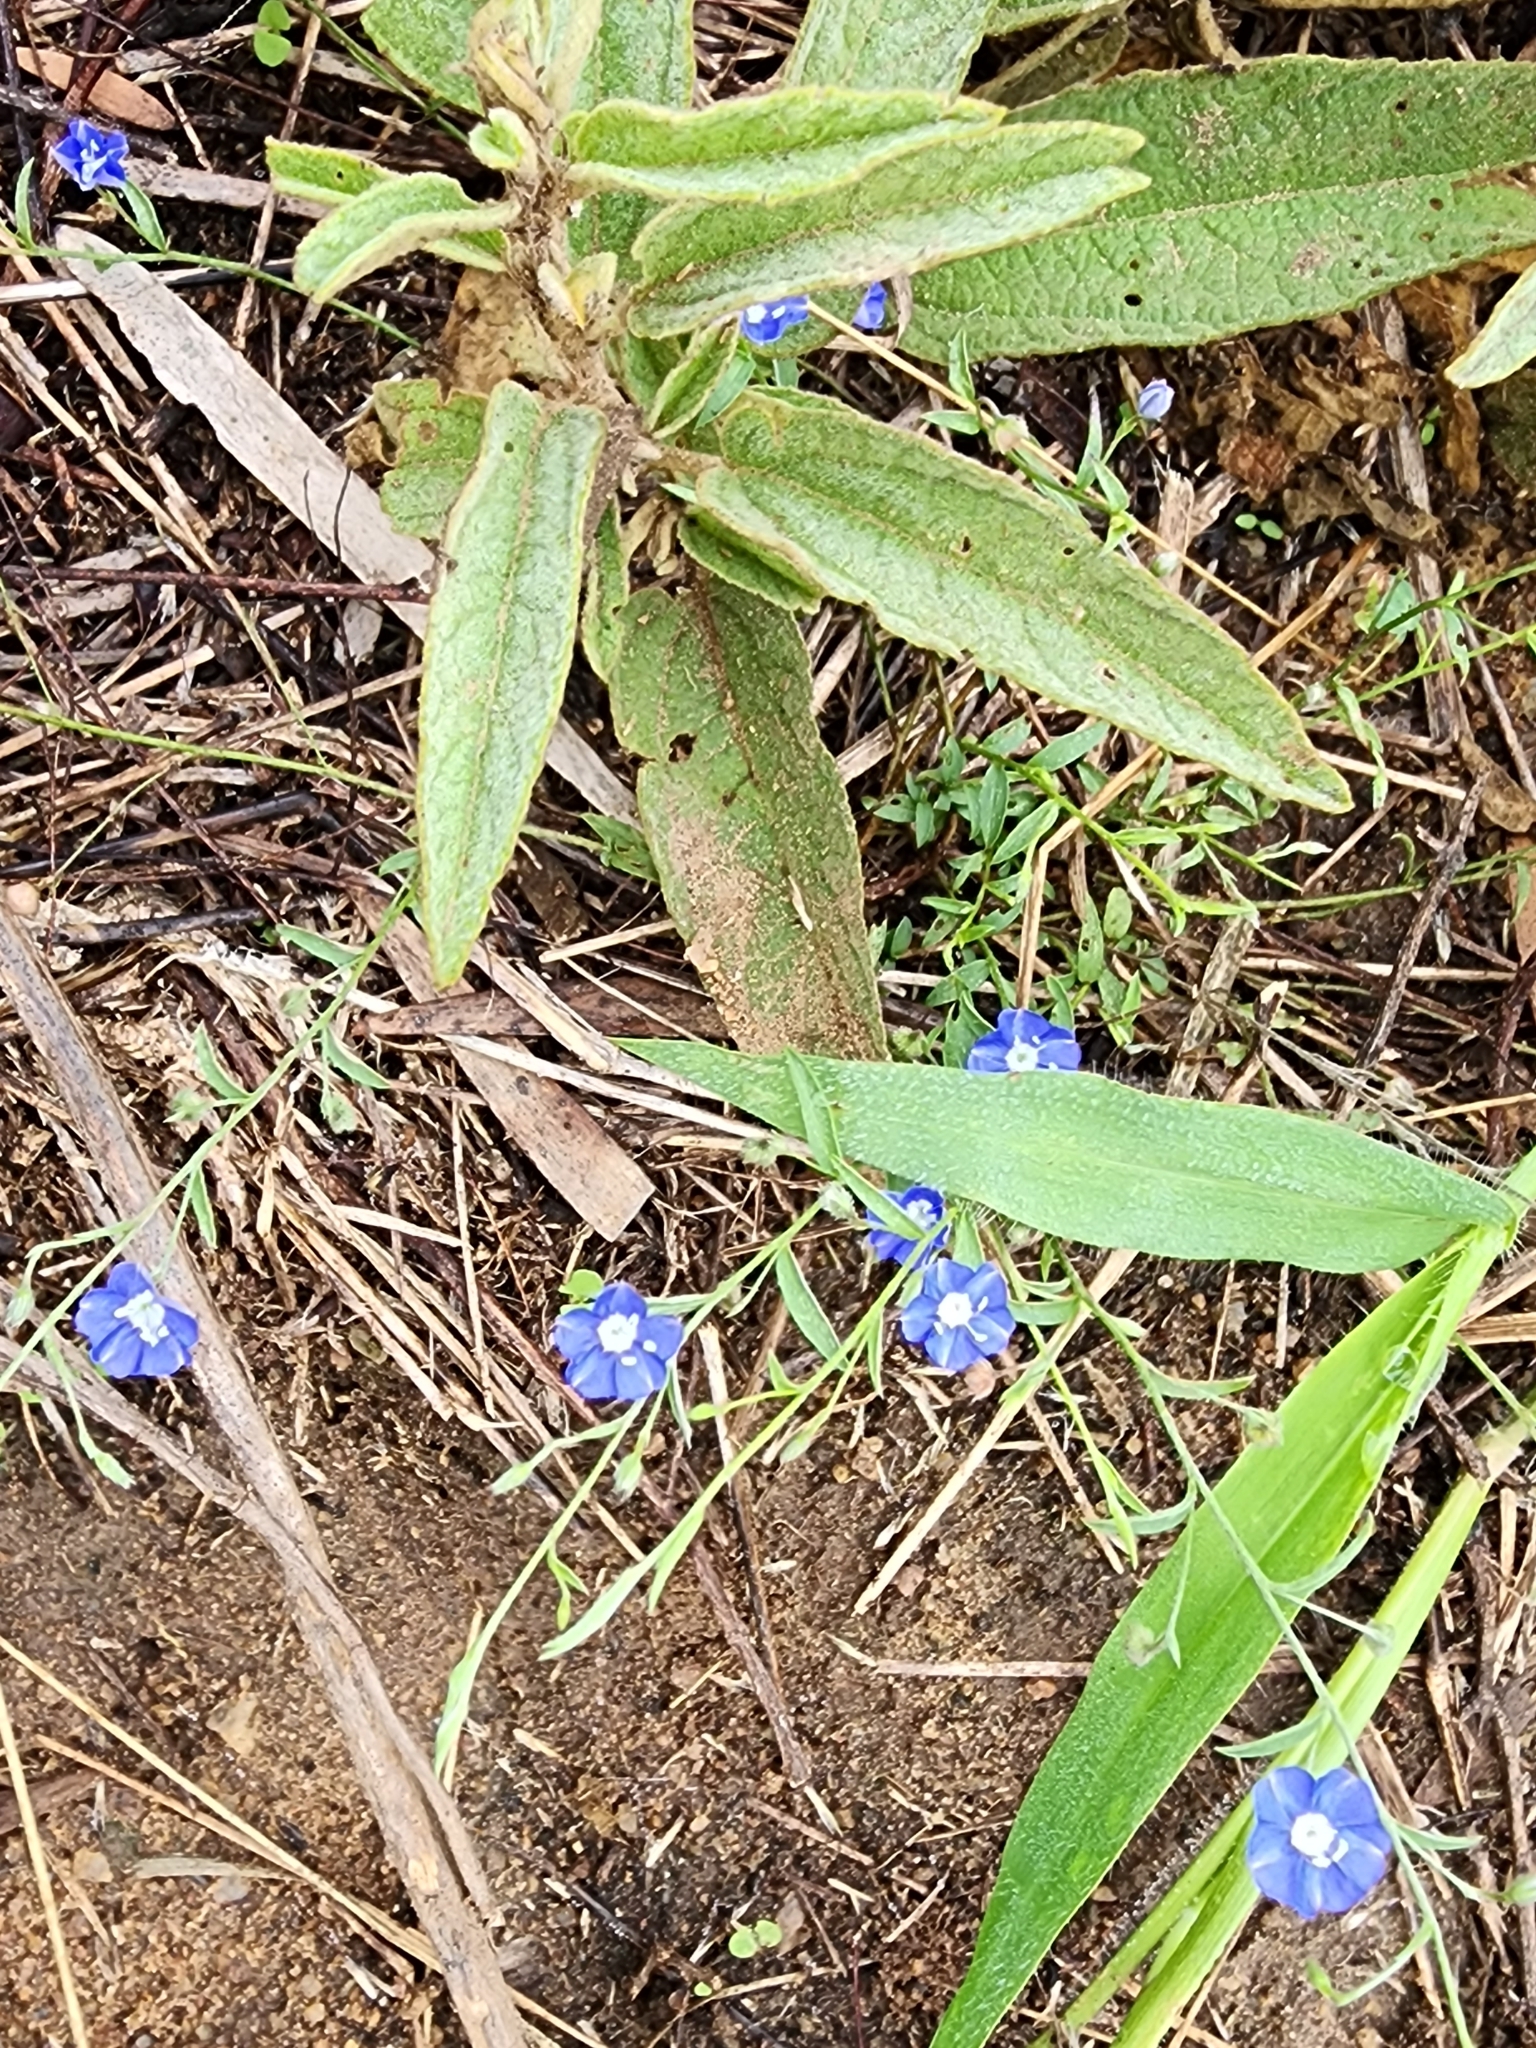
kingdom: Plantae
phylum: Tracheophyta
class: Magnoliopsida
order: Solanales
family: Convolvulaceae
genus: Evolvulus
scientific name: Evolvulus alsinoides
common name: Slender dwarf morning-glory
